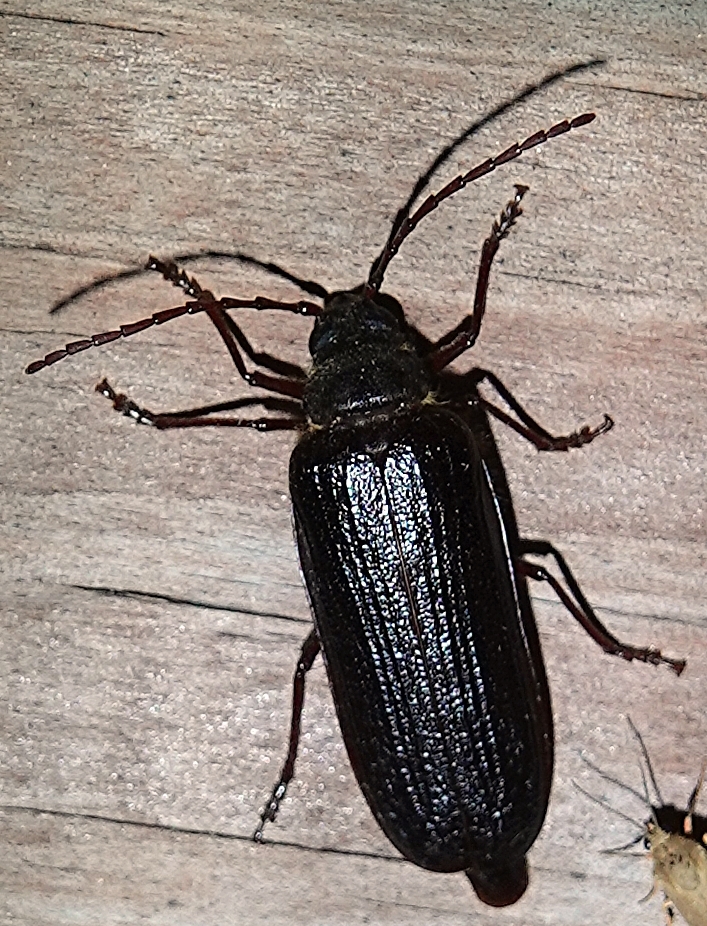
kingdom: Animalia
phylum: Arthropoda
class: Insecta
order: Coleoptera
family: Cerambycidae
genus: Tragosoma
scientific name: Tragosoma harrisii
